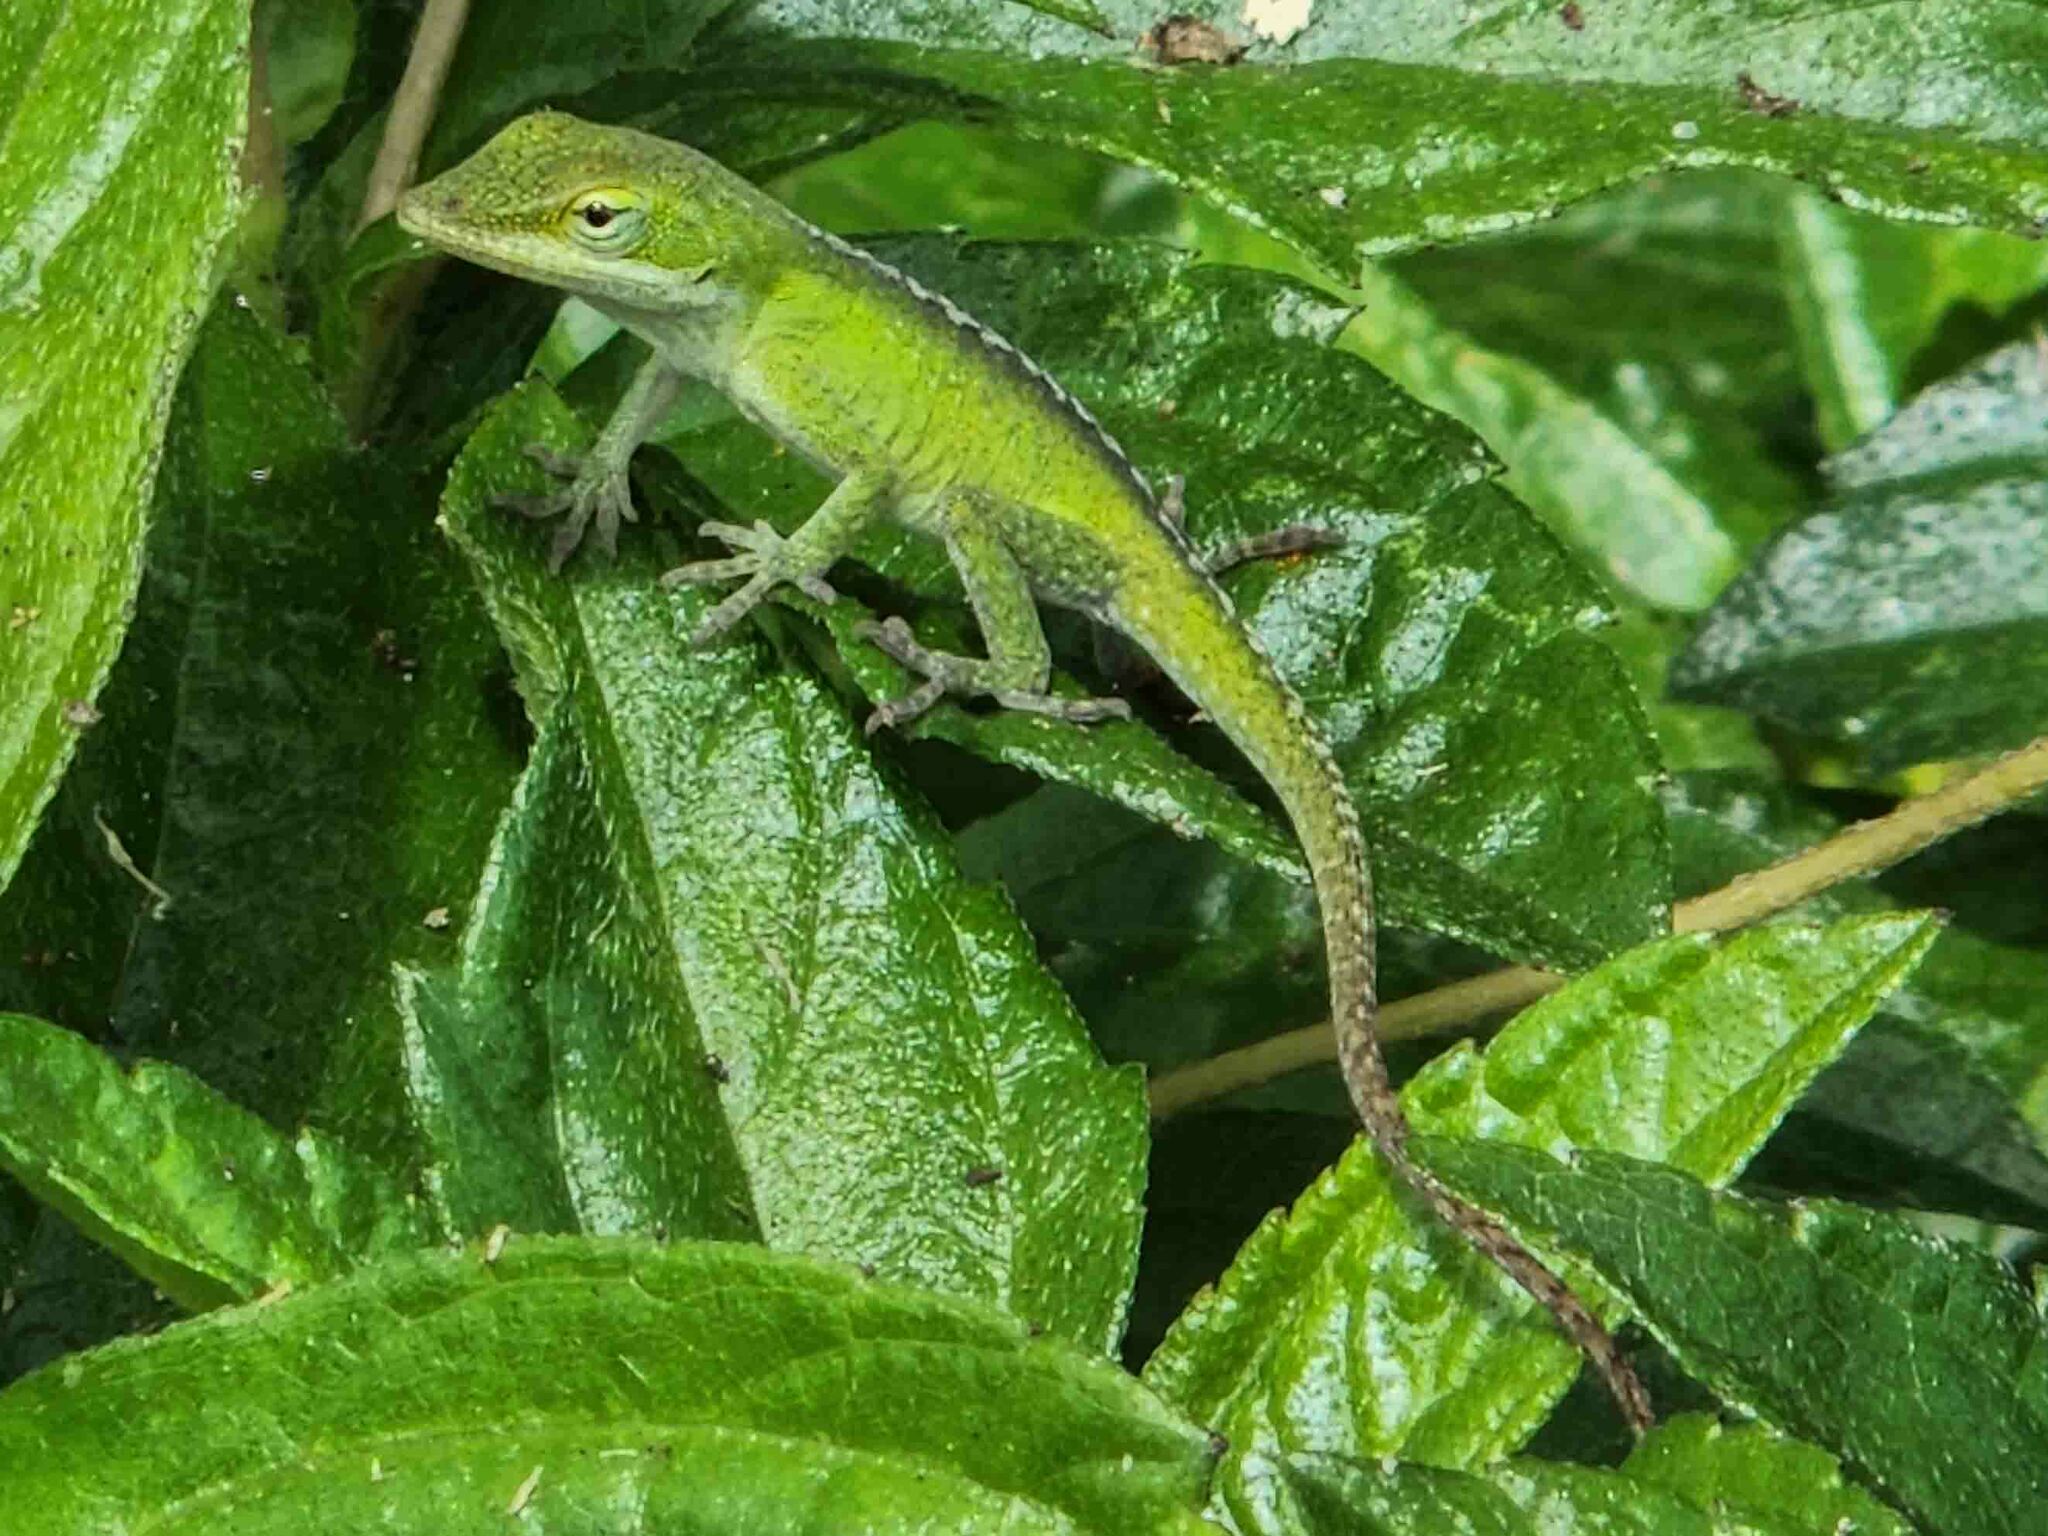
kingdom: Animalia
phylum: Chordata
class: Squamata
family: Dactyloidae
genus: Anolis
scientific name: Anolis carolinensis
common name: Green anole
